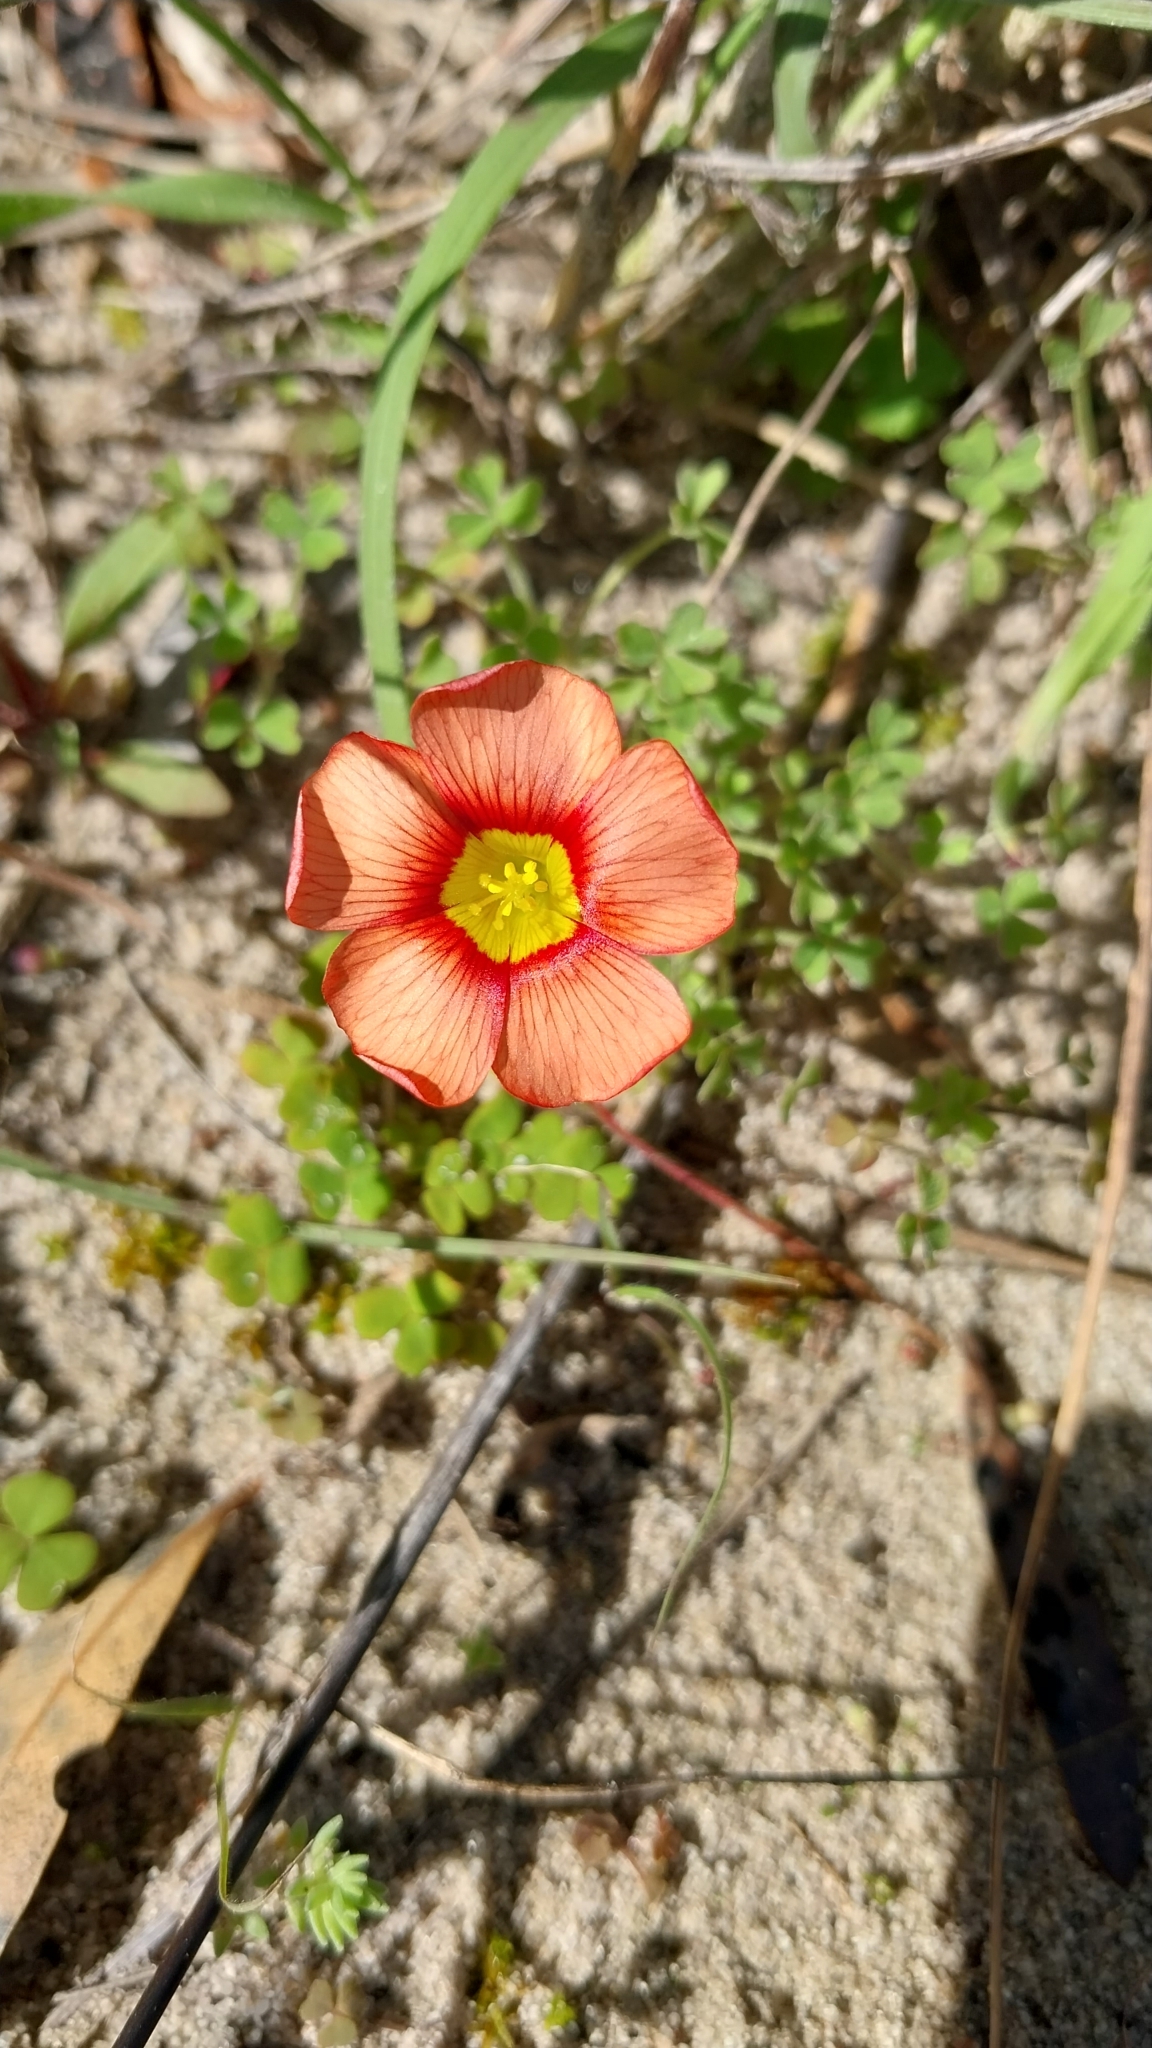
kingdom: Plantae
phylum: Tracheophyta
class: Magnoliopsida
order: Oxalidales
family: Oxalidaceae
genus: Oxalis
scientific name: Oxalis obtusa
